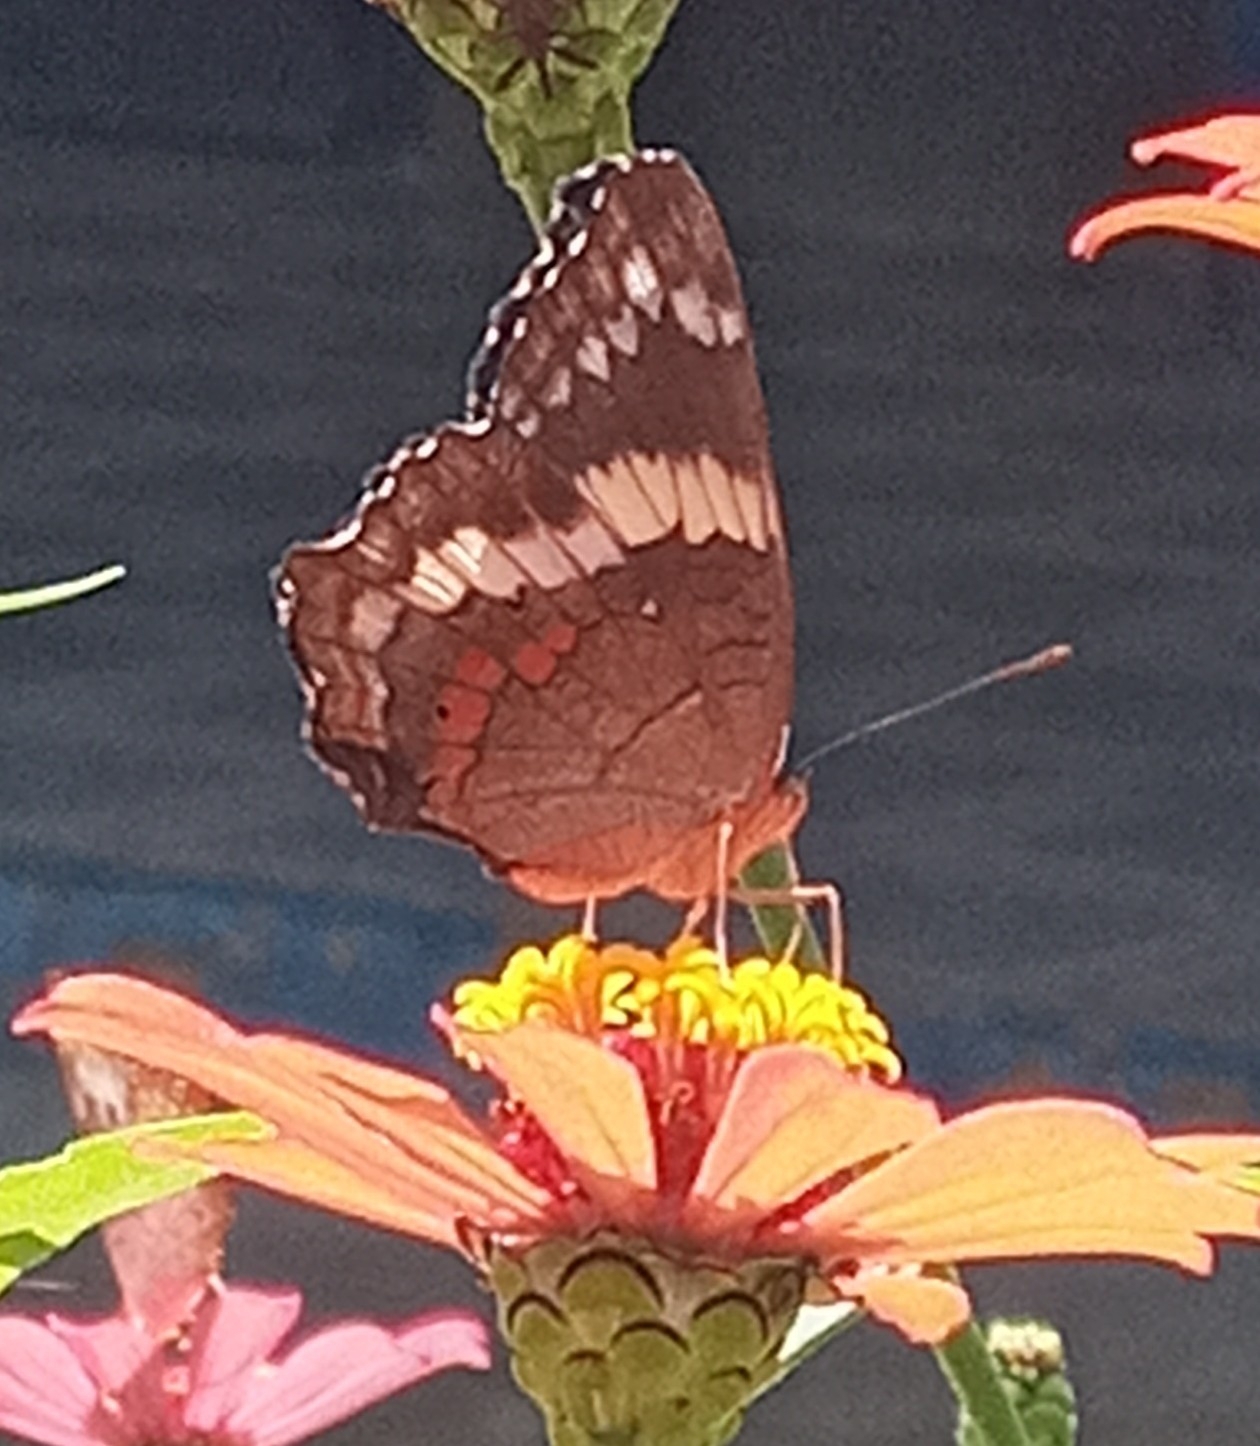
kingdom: Animalia
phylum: Arthropoda
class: Insecta
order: Lepidoptera
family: Nymphalidae
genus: Anartia
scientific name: Anartia fatima
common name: Banded peacock
